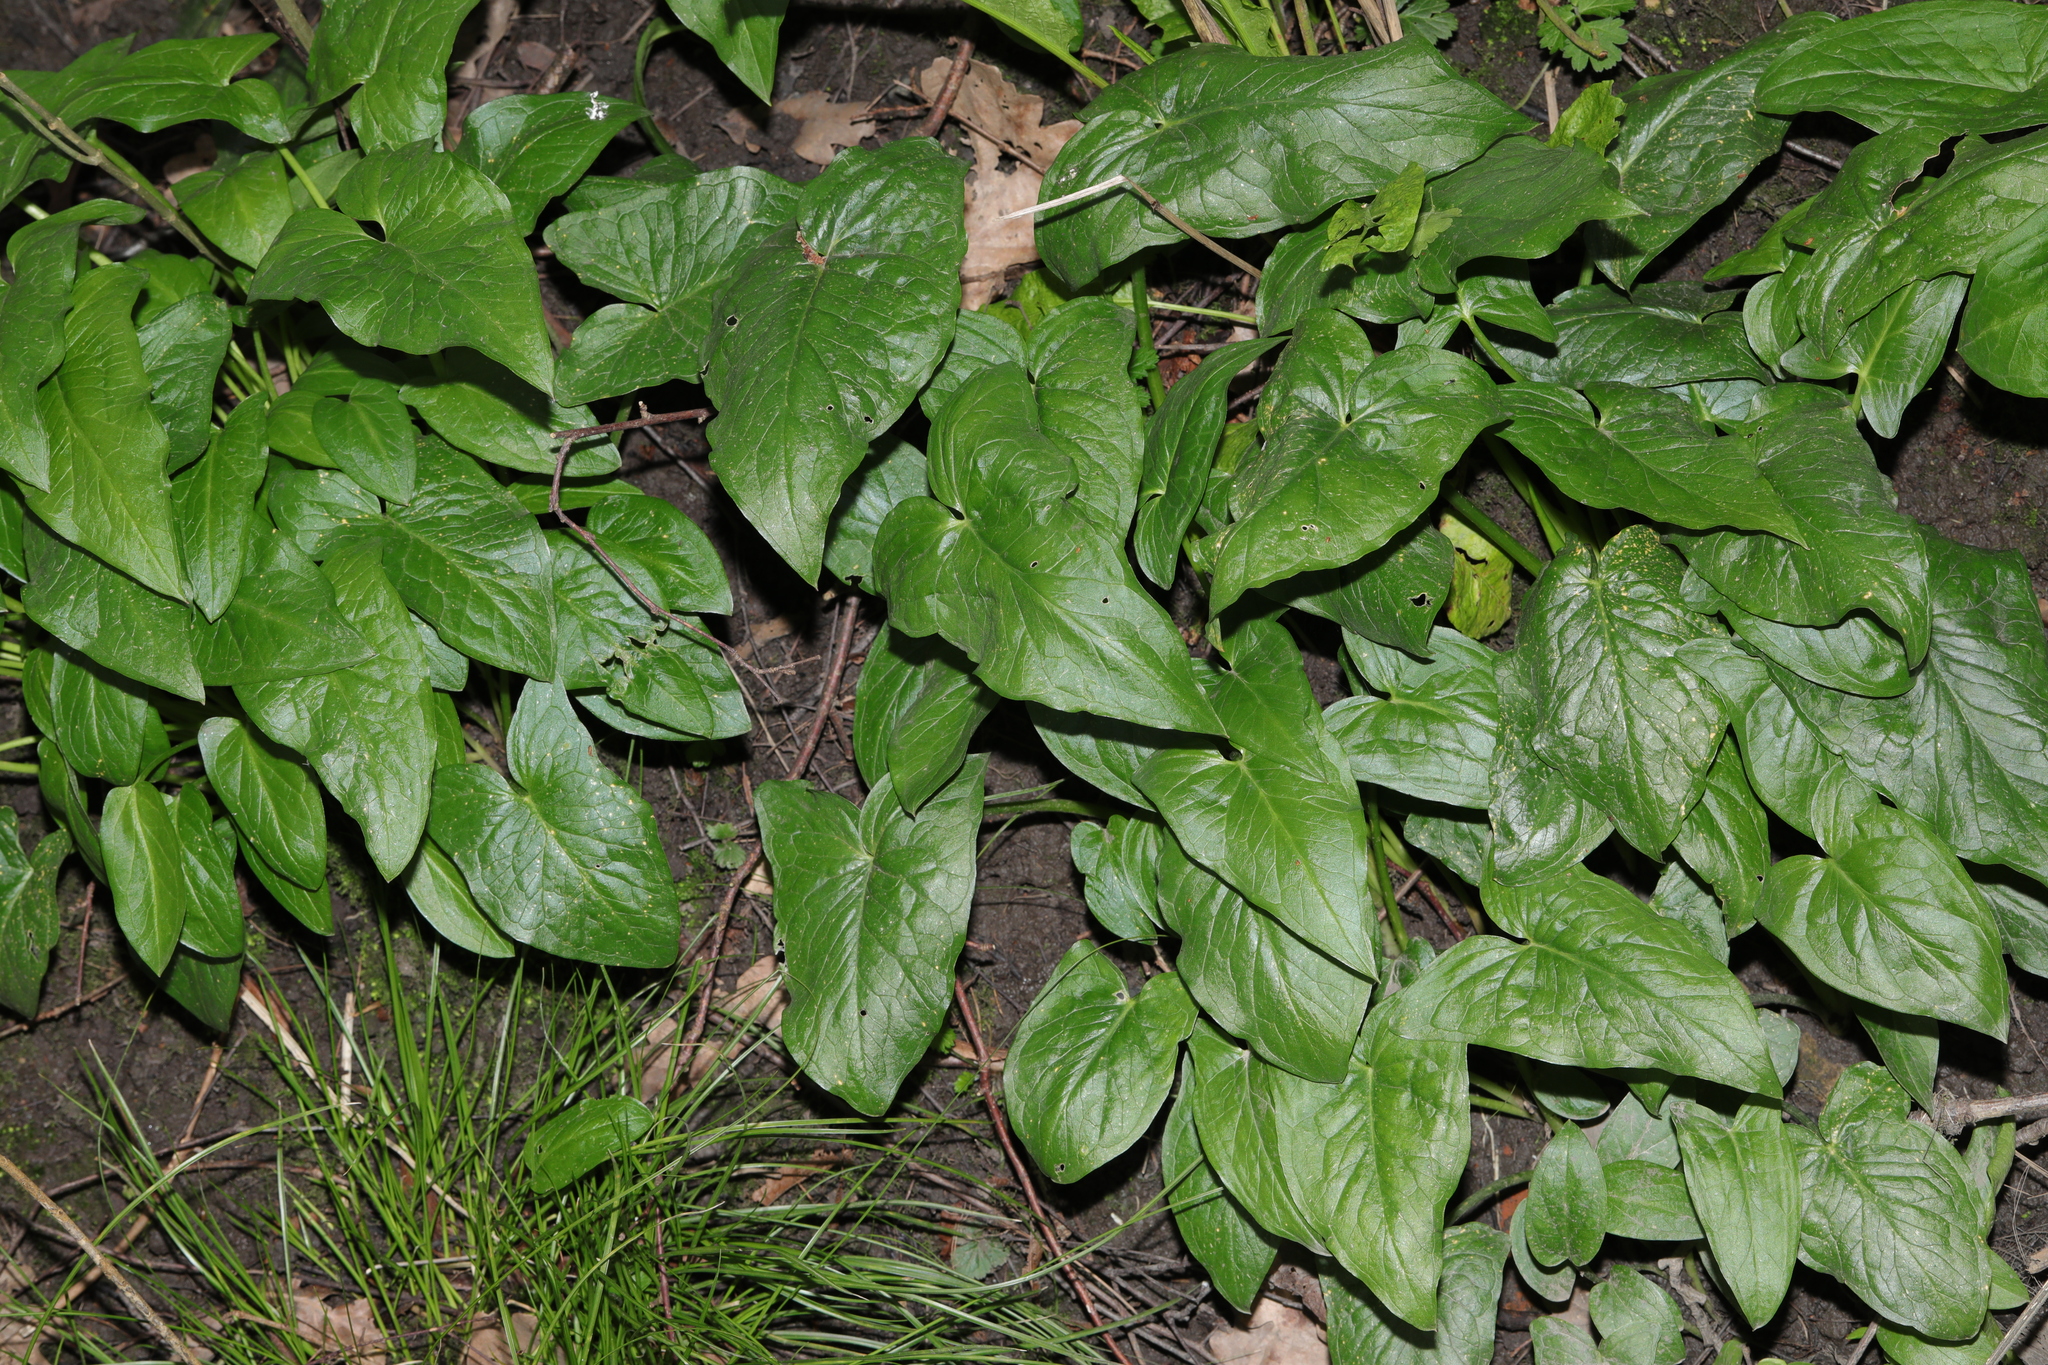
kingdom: Plantae
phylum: Tracheophyta
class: Liliopsida
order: Alismatales
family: Araceae
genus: Arum
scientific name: Arum maculatum
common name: Lords-and-ladies
